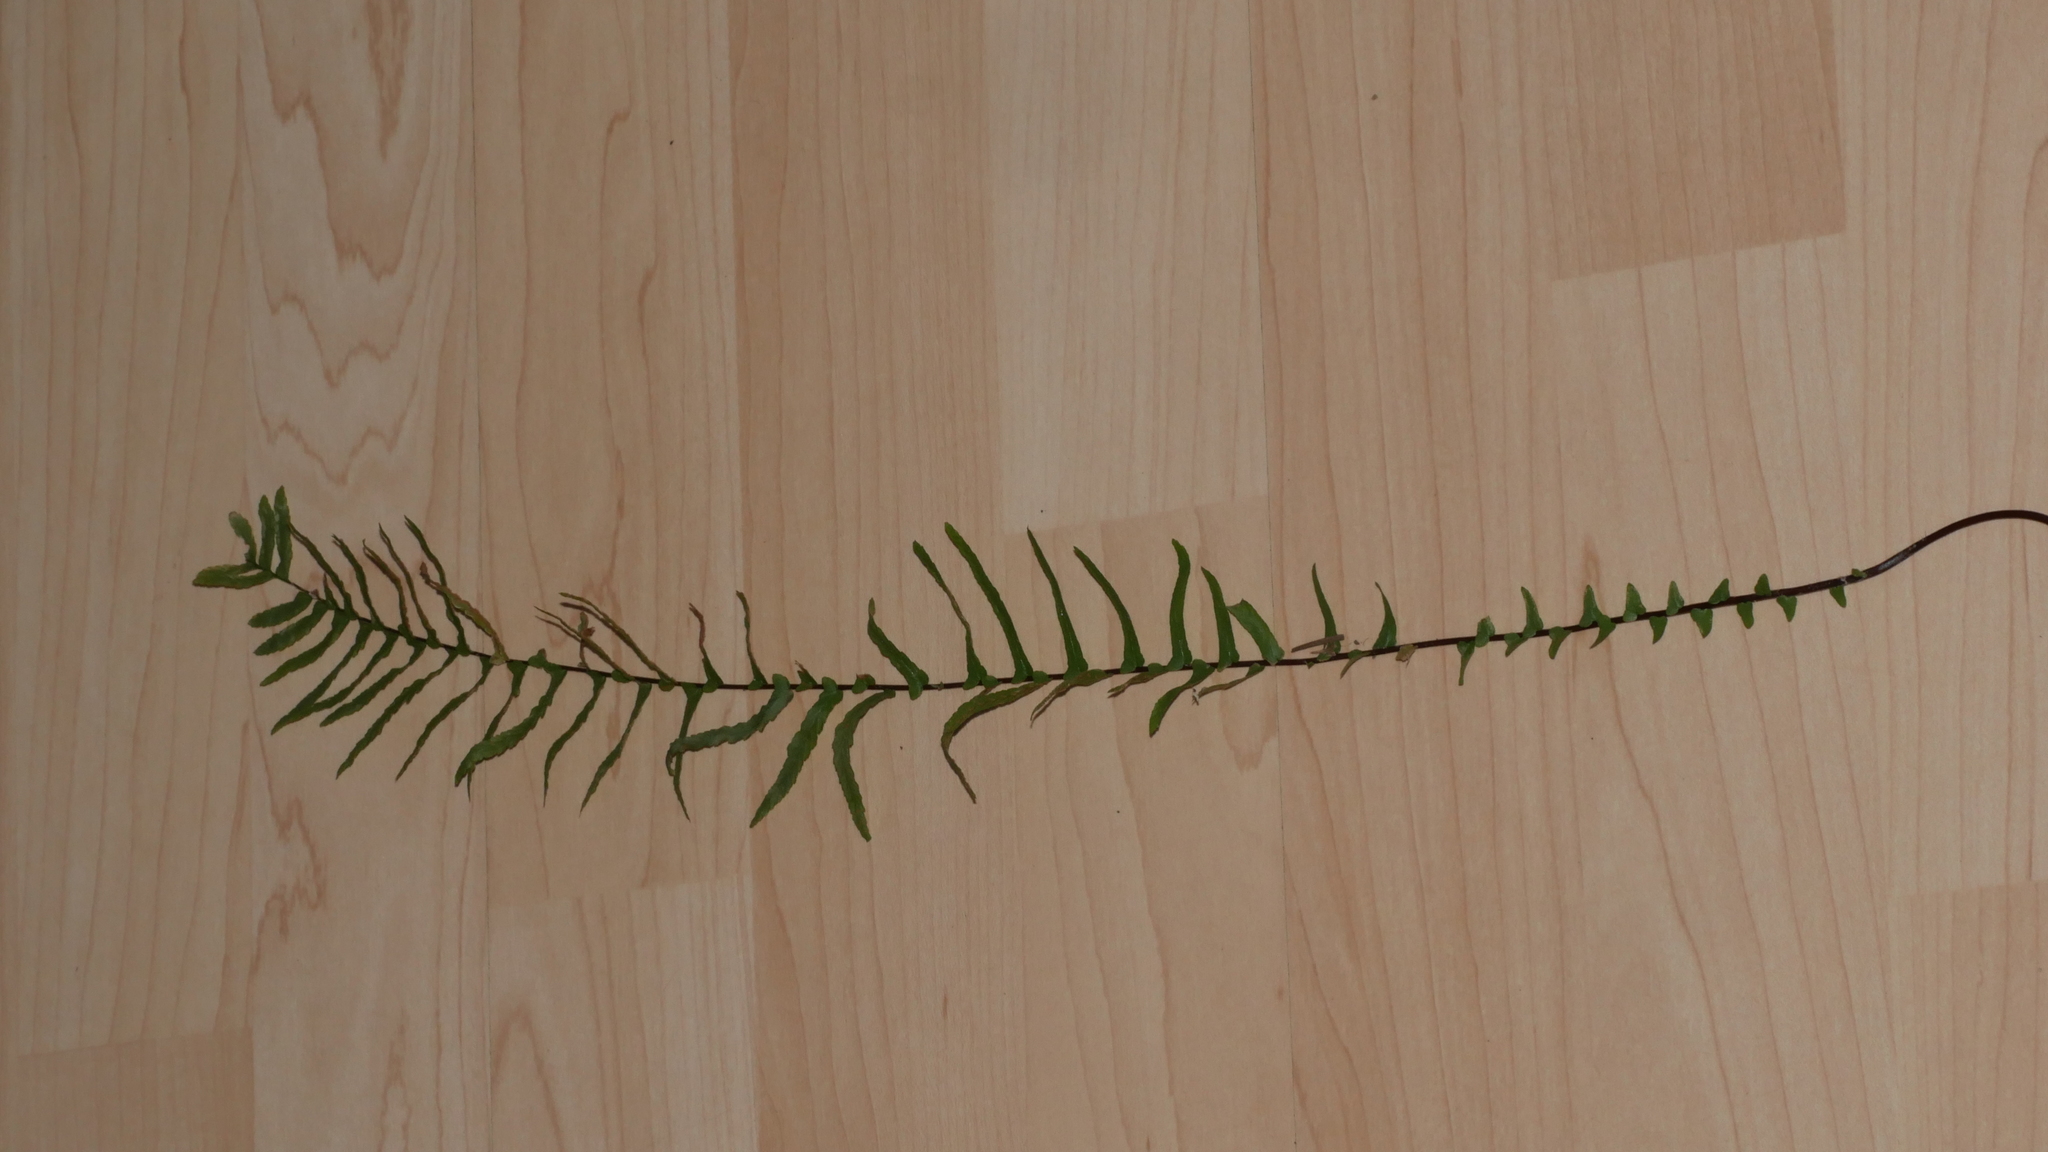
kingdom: Plantae
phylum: Tracheophyta
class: Polypodiopsida
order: Polypodiales
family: Aspleniaceae
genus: Asplenium
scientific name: Asplenium platyneuron
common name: Ebony spleenwort
